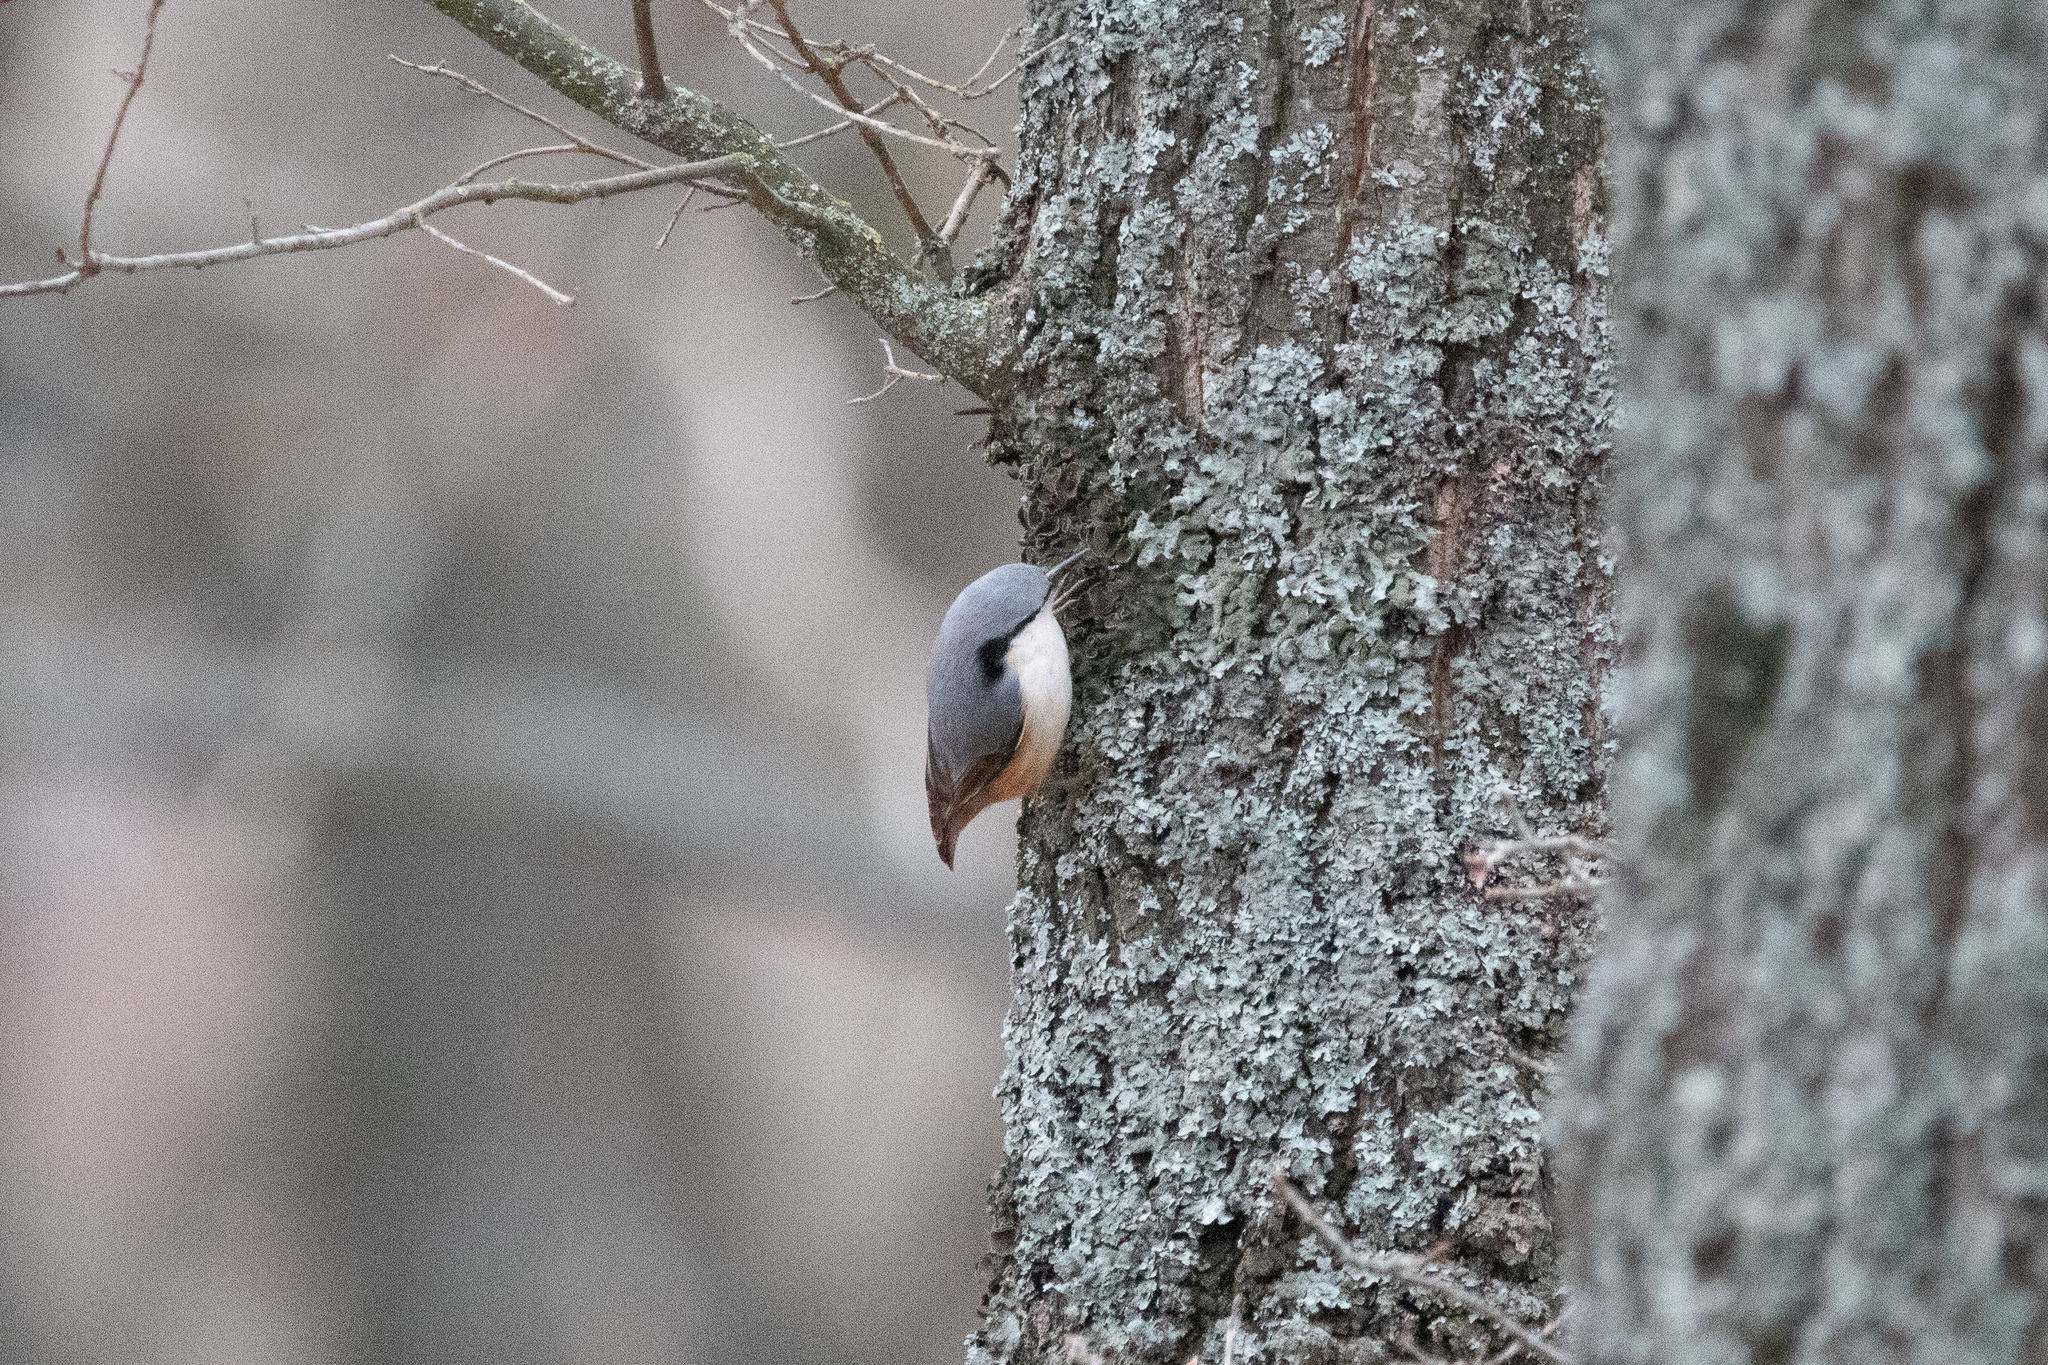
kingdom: Animalia
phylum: Chordata
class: Aves
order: Passeriformes
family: Sittidae
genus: Sitta
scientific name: Sitta europaea
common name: Eurasian nuthatch
